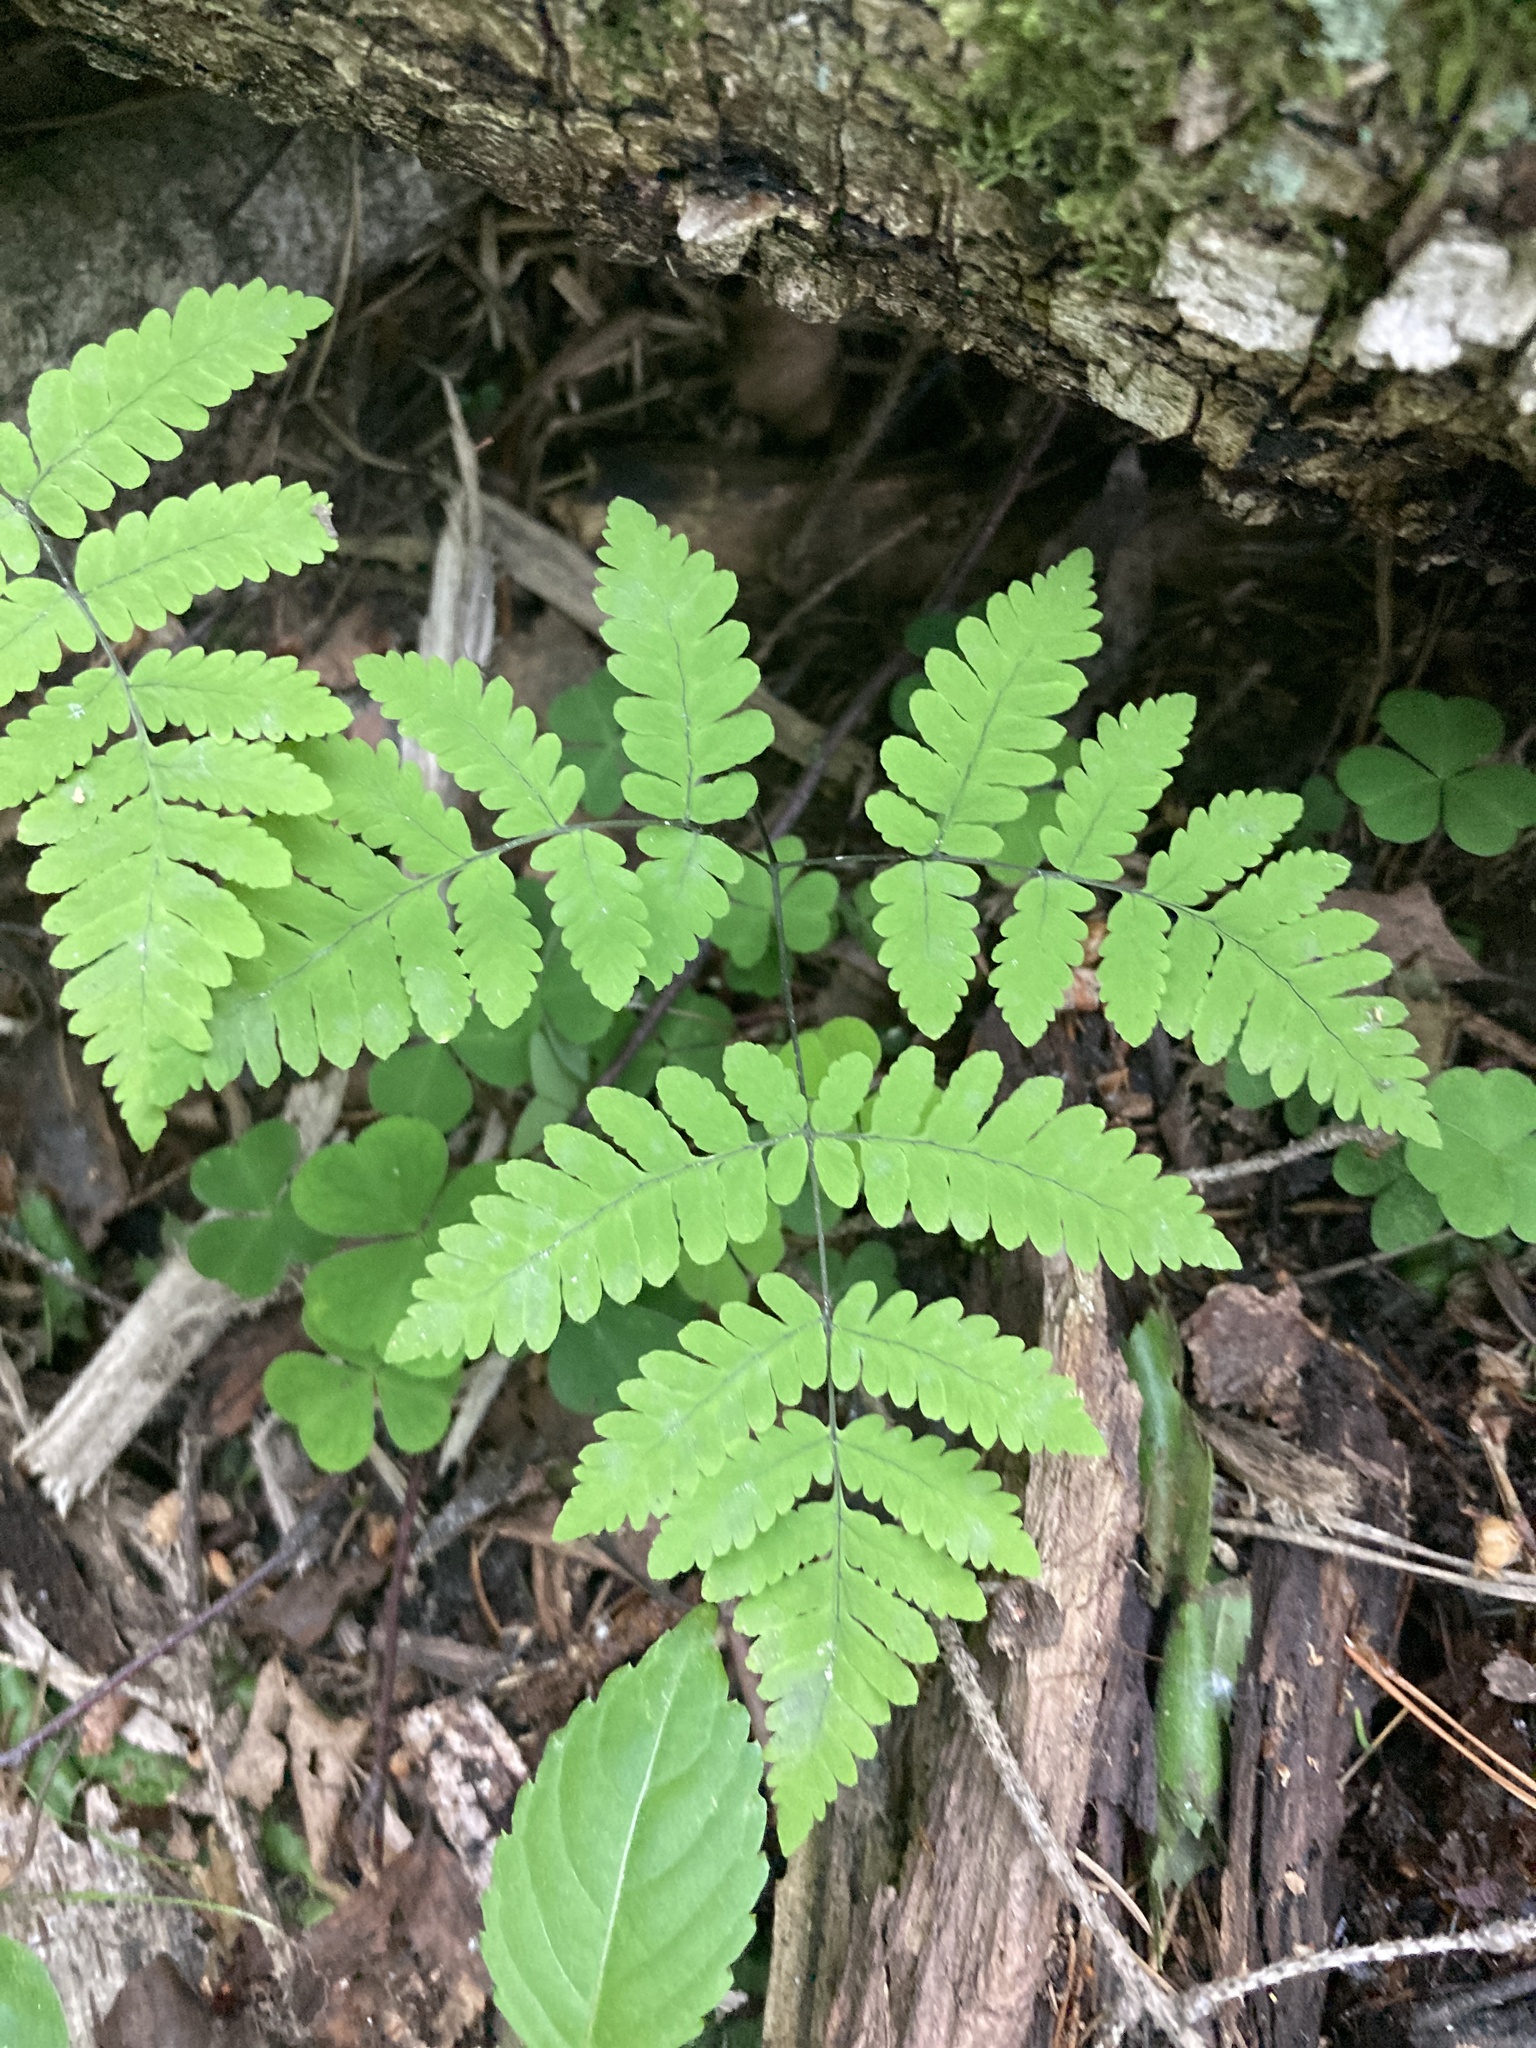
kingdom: Plantae
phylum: Tracheophyta
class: Polypodiopsida
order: Polypodiales
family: Cystopteridaceae
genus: Gymnocarpium
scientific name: Gymnocarpium dryopteris
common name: Oak fern
